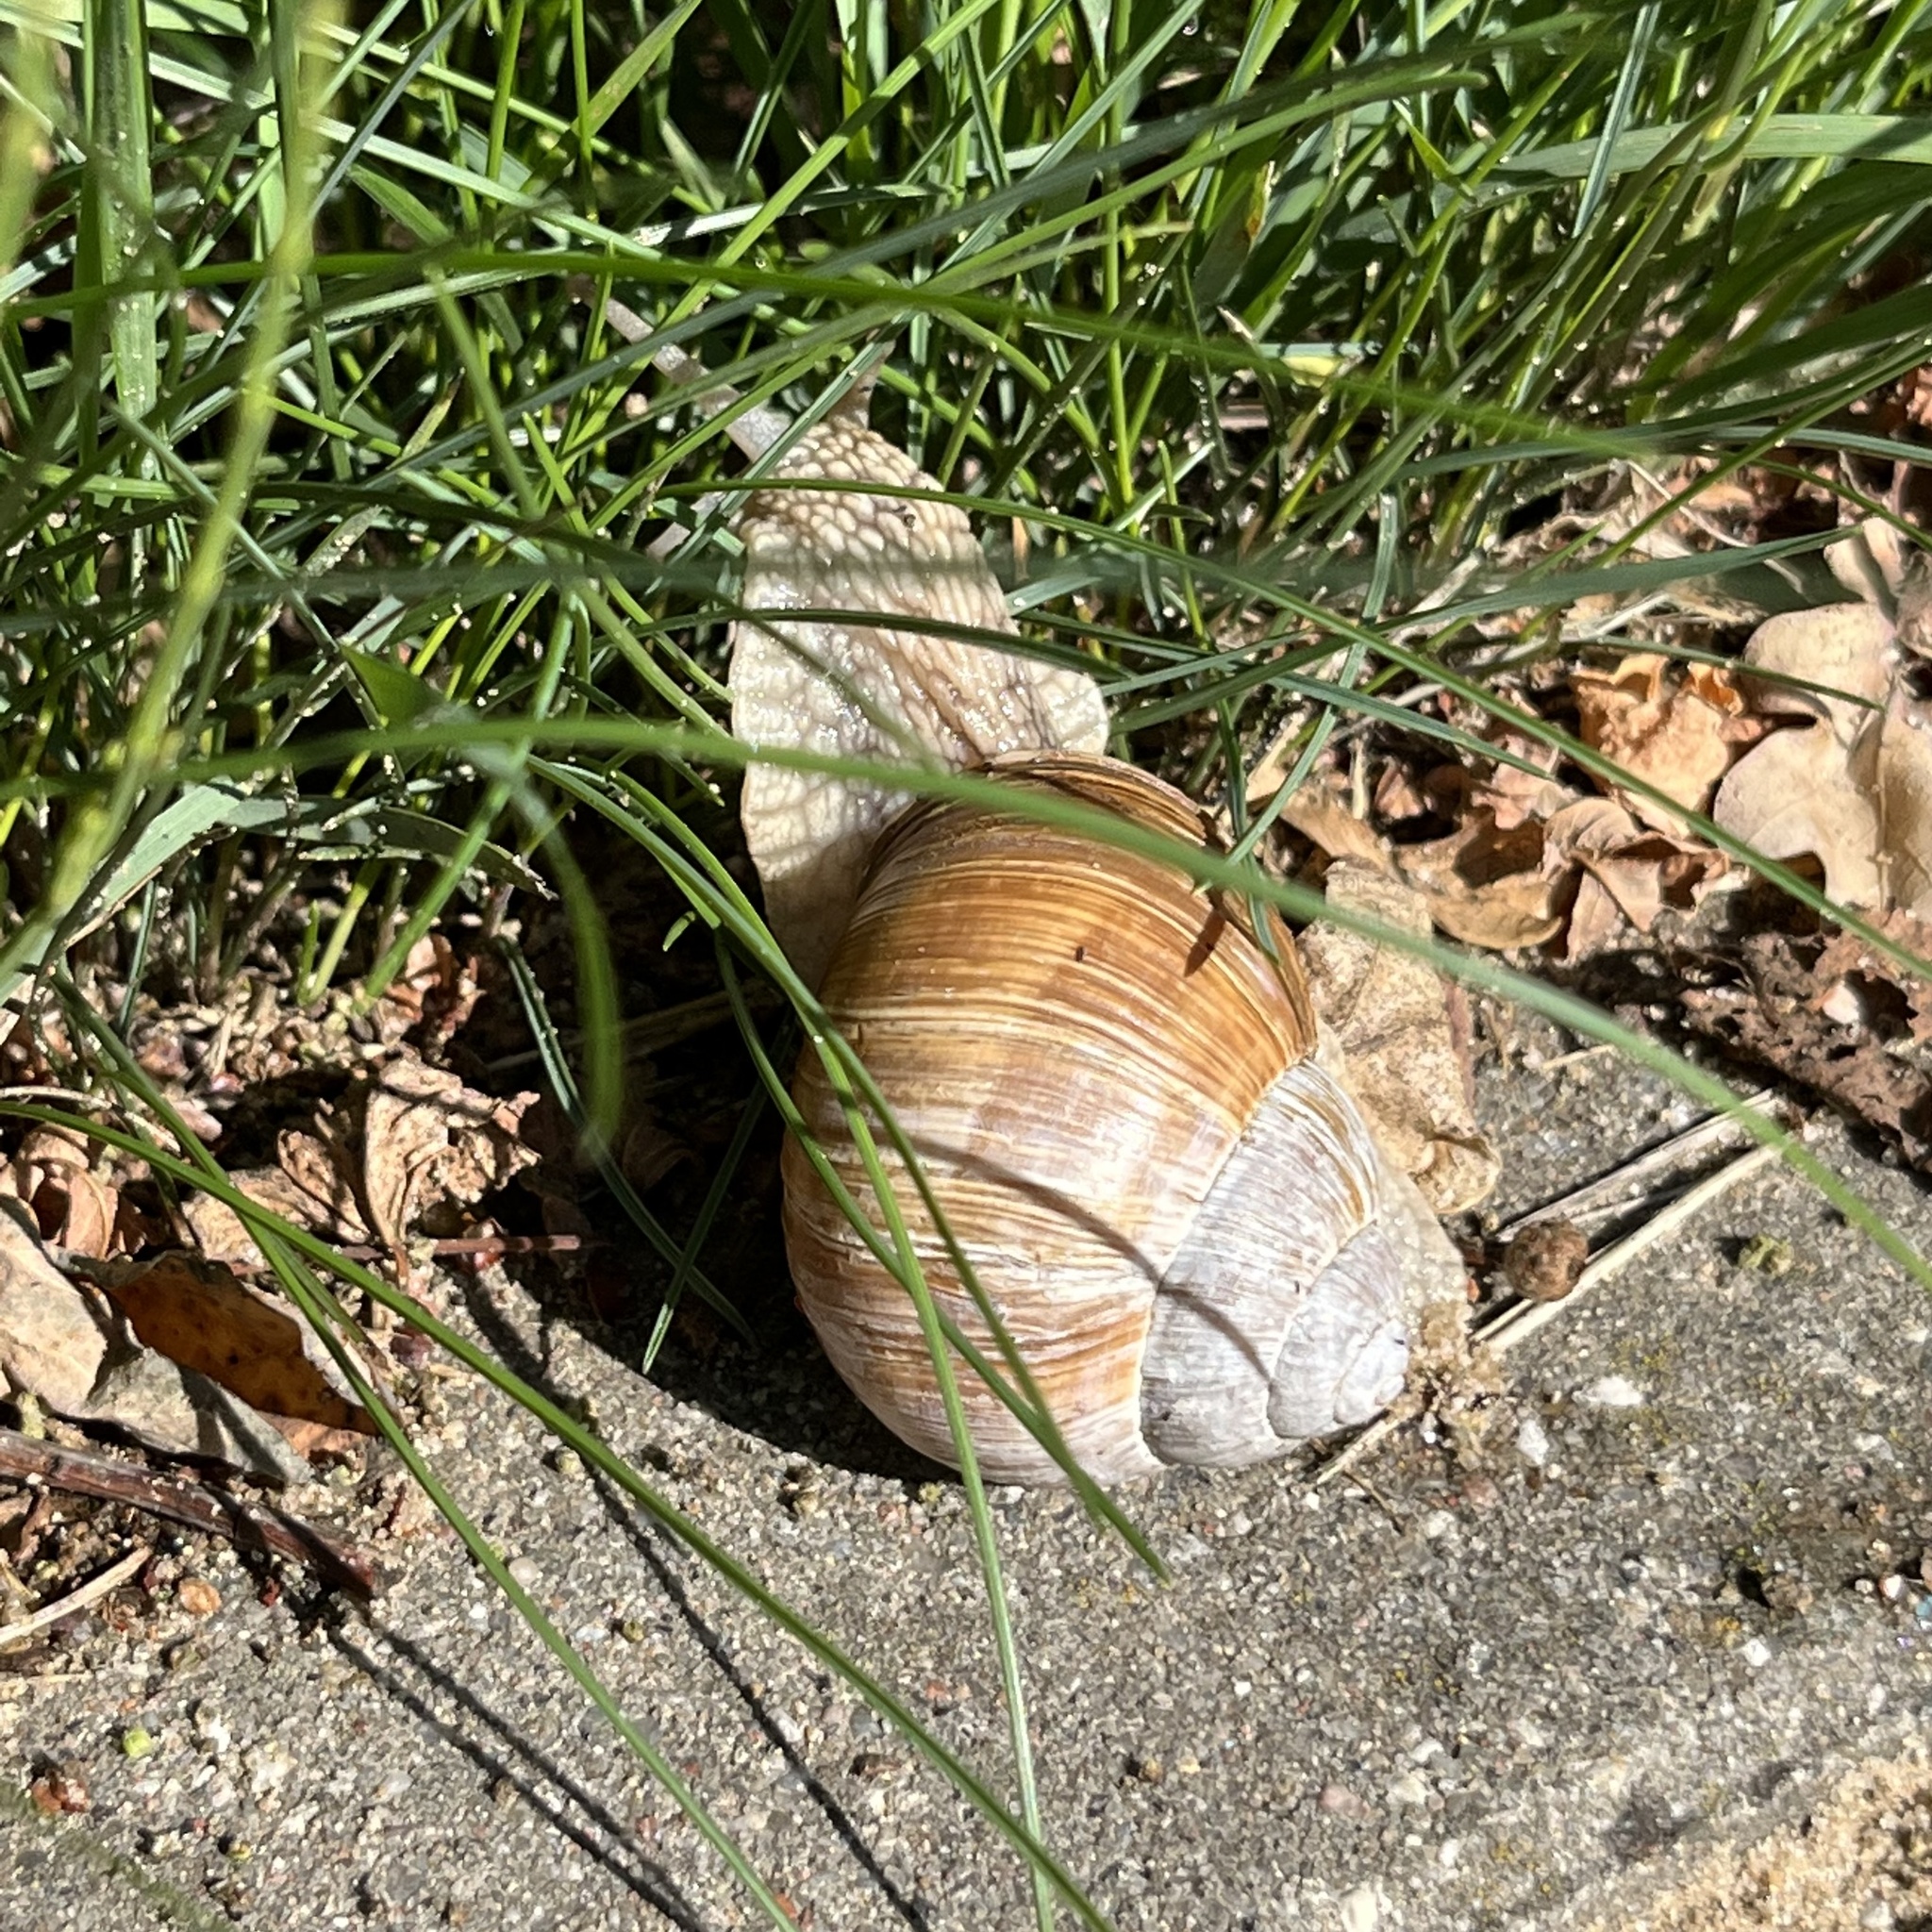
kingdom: Animalia
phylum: Mollusca
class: Gastropoda
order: Stylommatophora
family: Helicidae
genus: Helix
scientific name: Helix pomatia
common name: Roman snail
